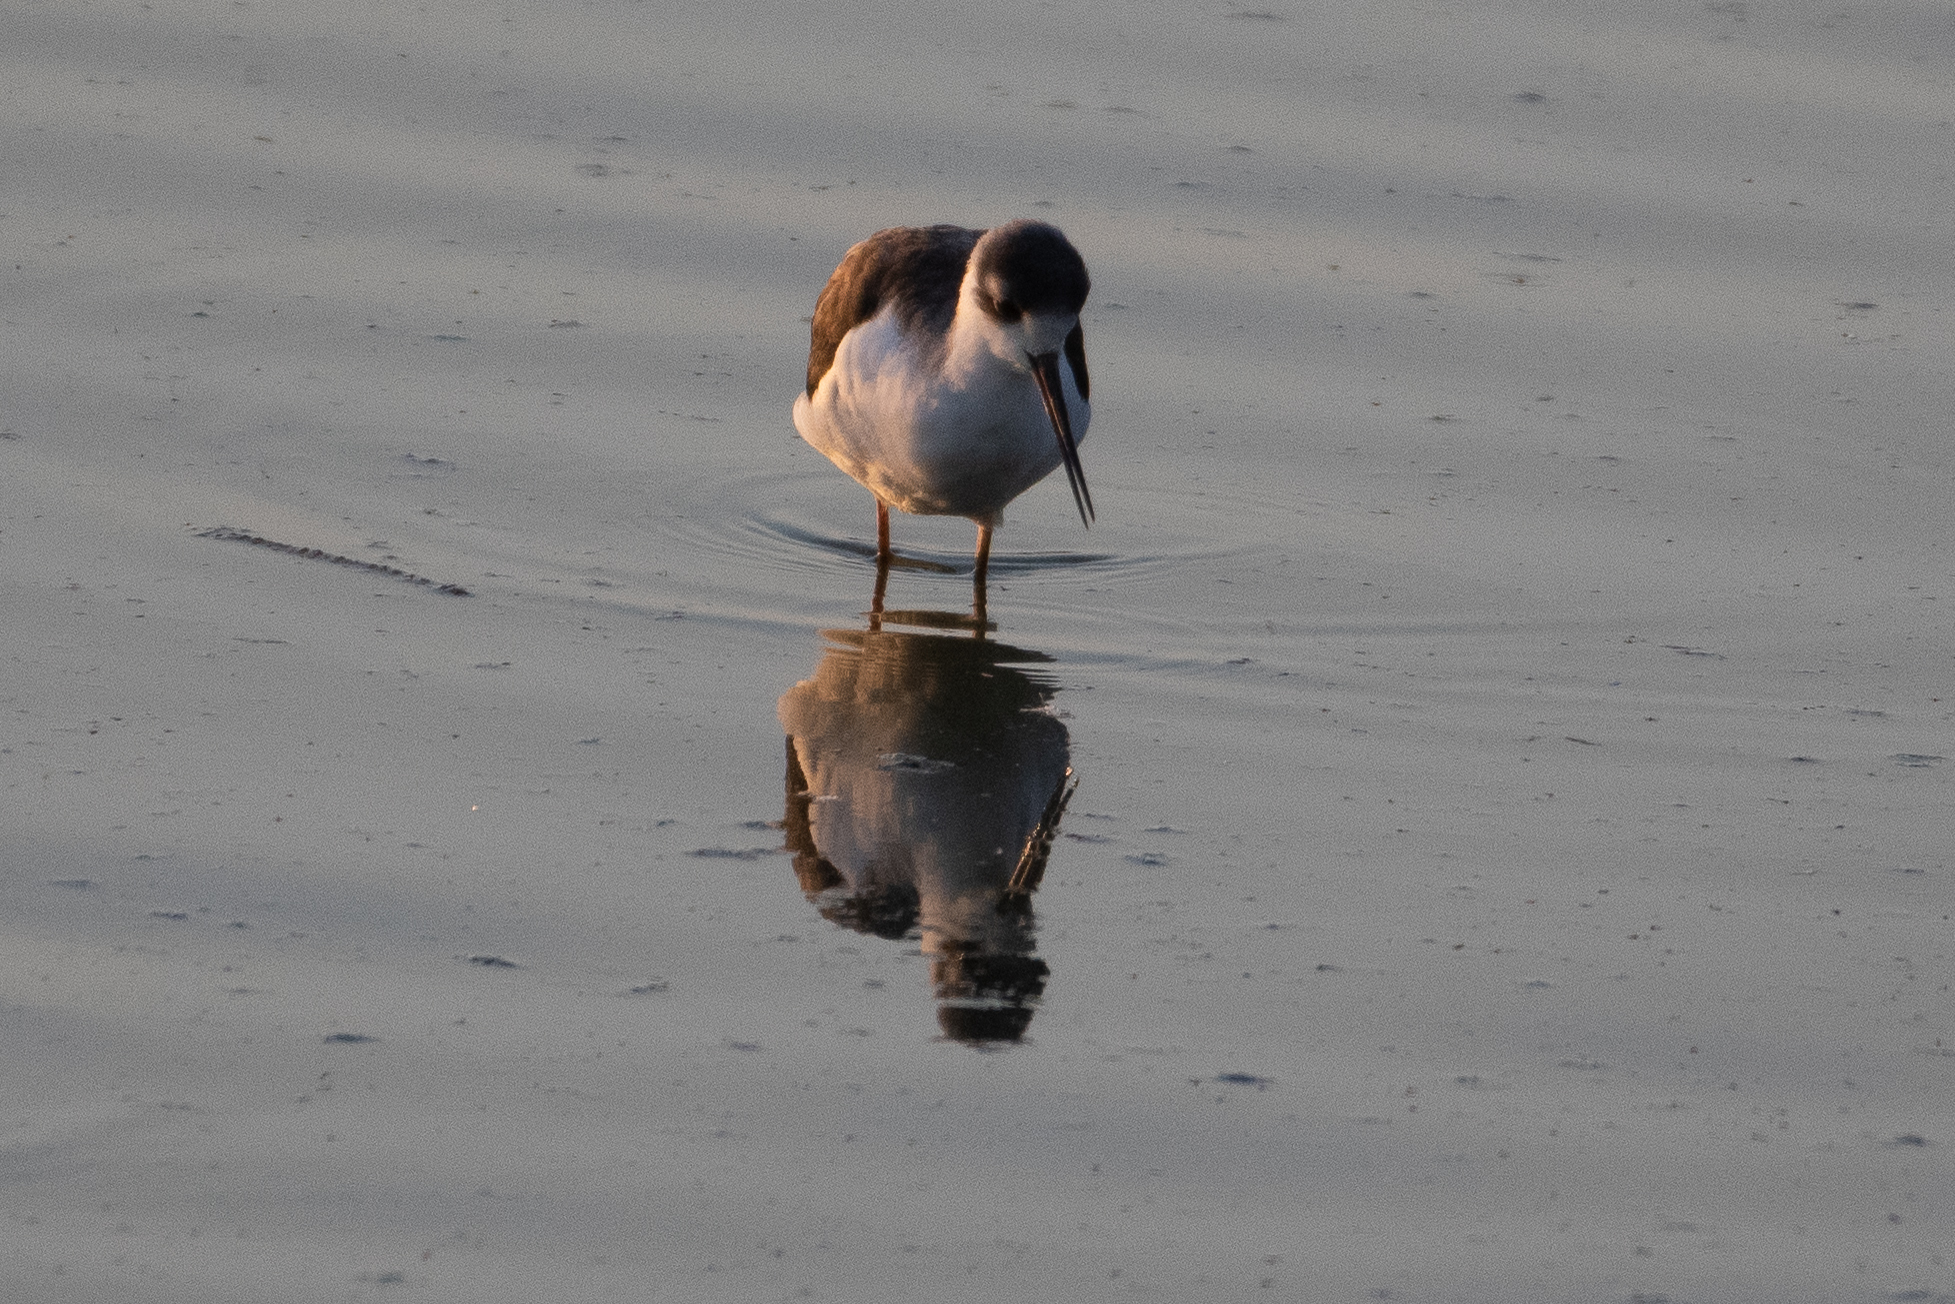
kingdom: Animalia
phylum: Chordata
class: Aves
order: Charadriiformes
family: Recurvirostridae
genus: Himantopus
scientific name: Himantopus mexicanus
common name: Black-necked stilt
